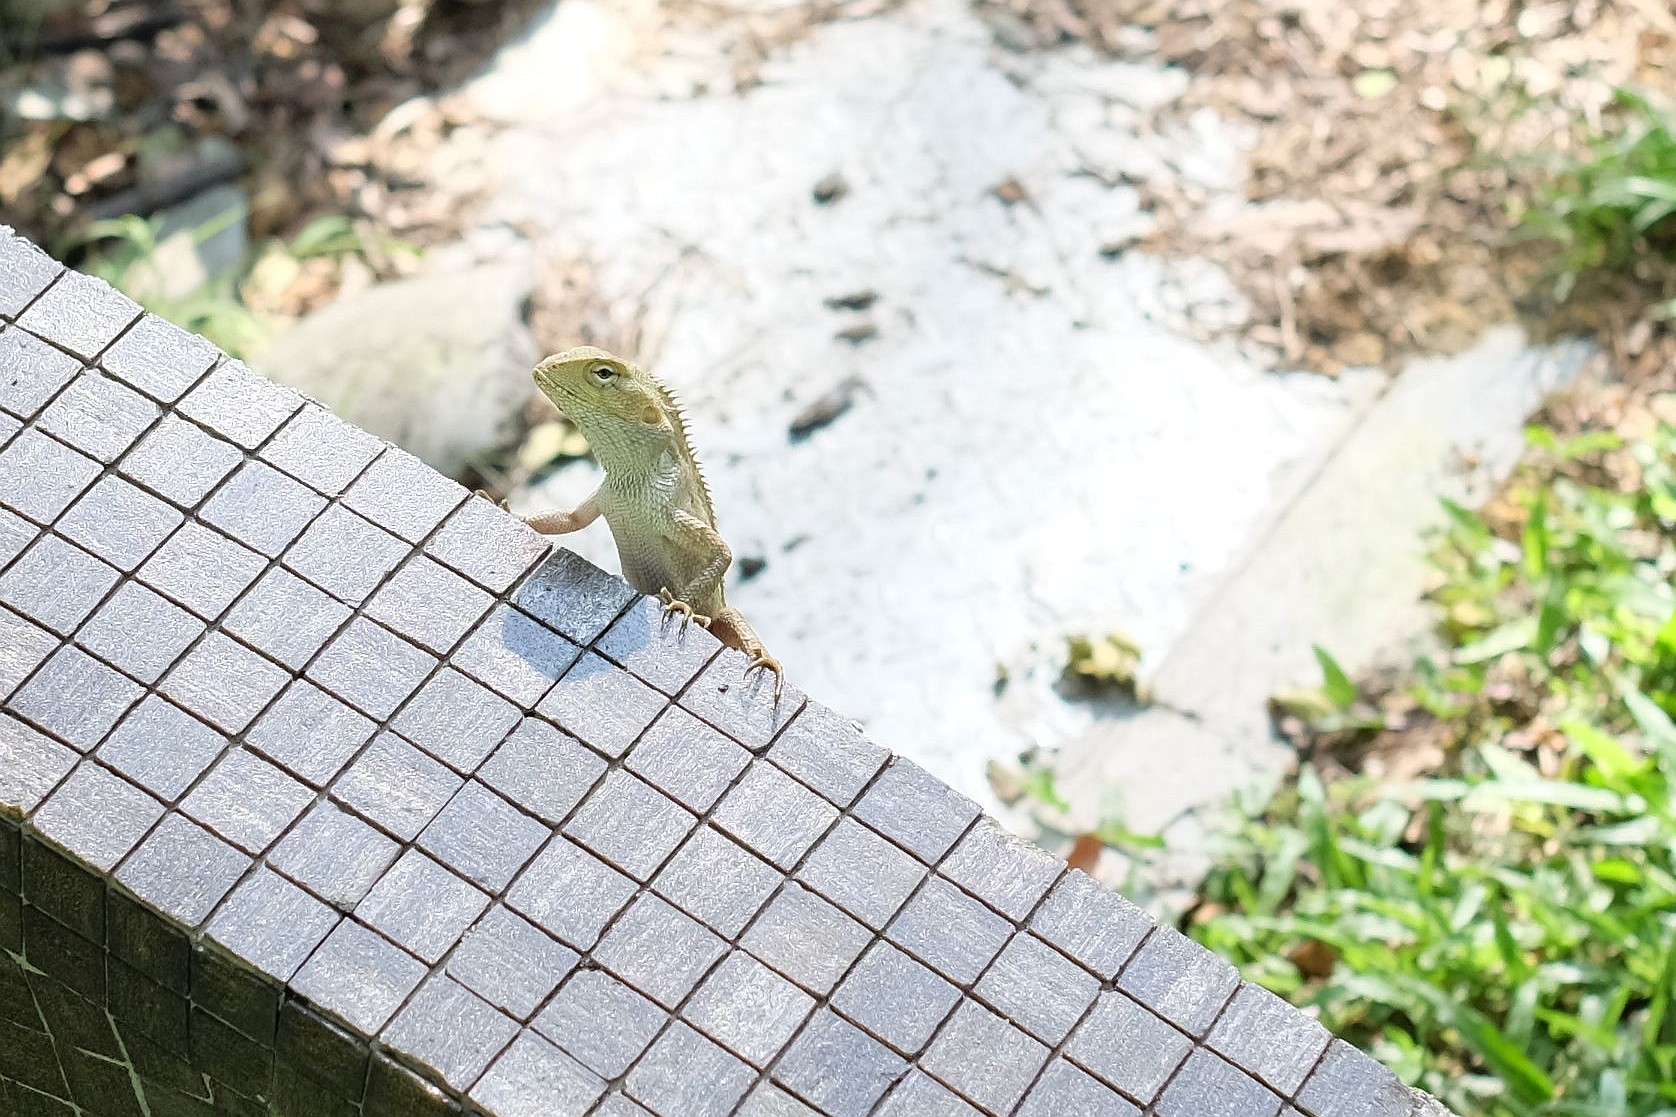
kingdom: Animalia
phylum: Chordata
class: Squamata
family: Agamidae
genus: Calotes
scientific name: Calotes versicolor
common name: Oriental garden lizard
